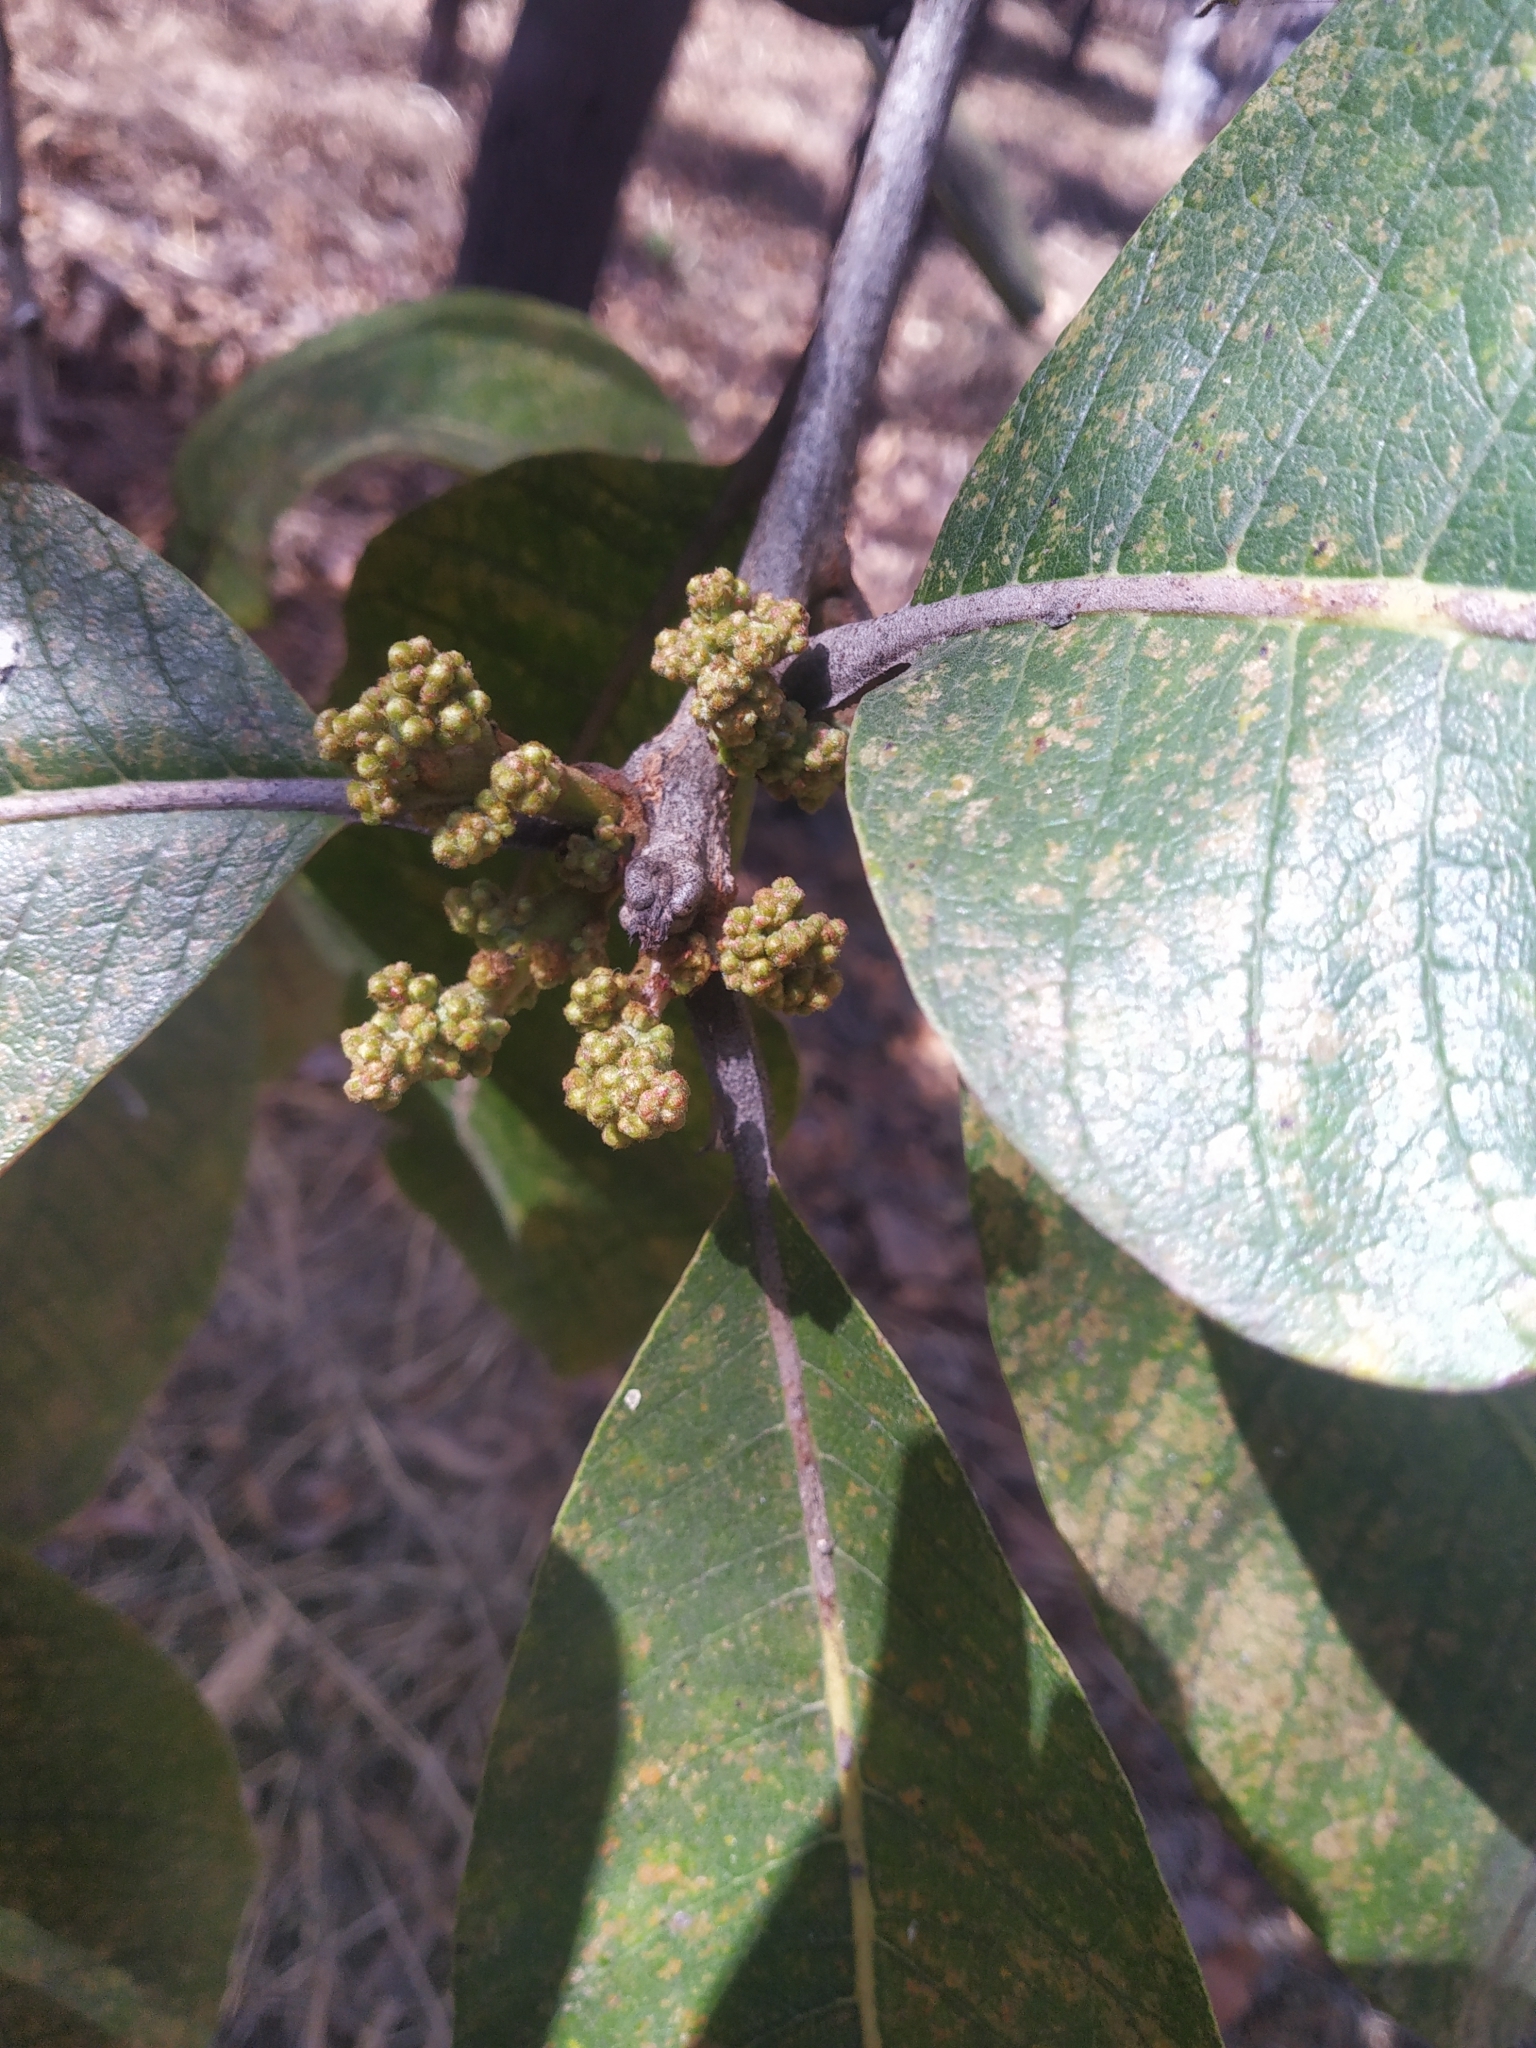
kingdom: Plantae
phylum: Tracheophyta
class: Magnoliopsida
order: Sapindales
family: Anacardiaceae
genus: Buchanania
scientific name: Buchanania cochinchinensis
